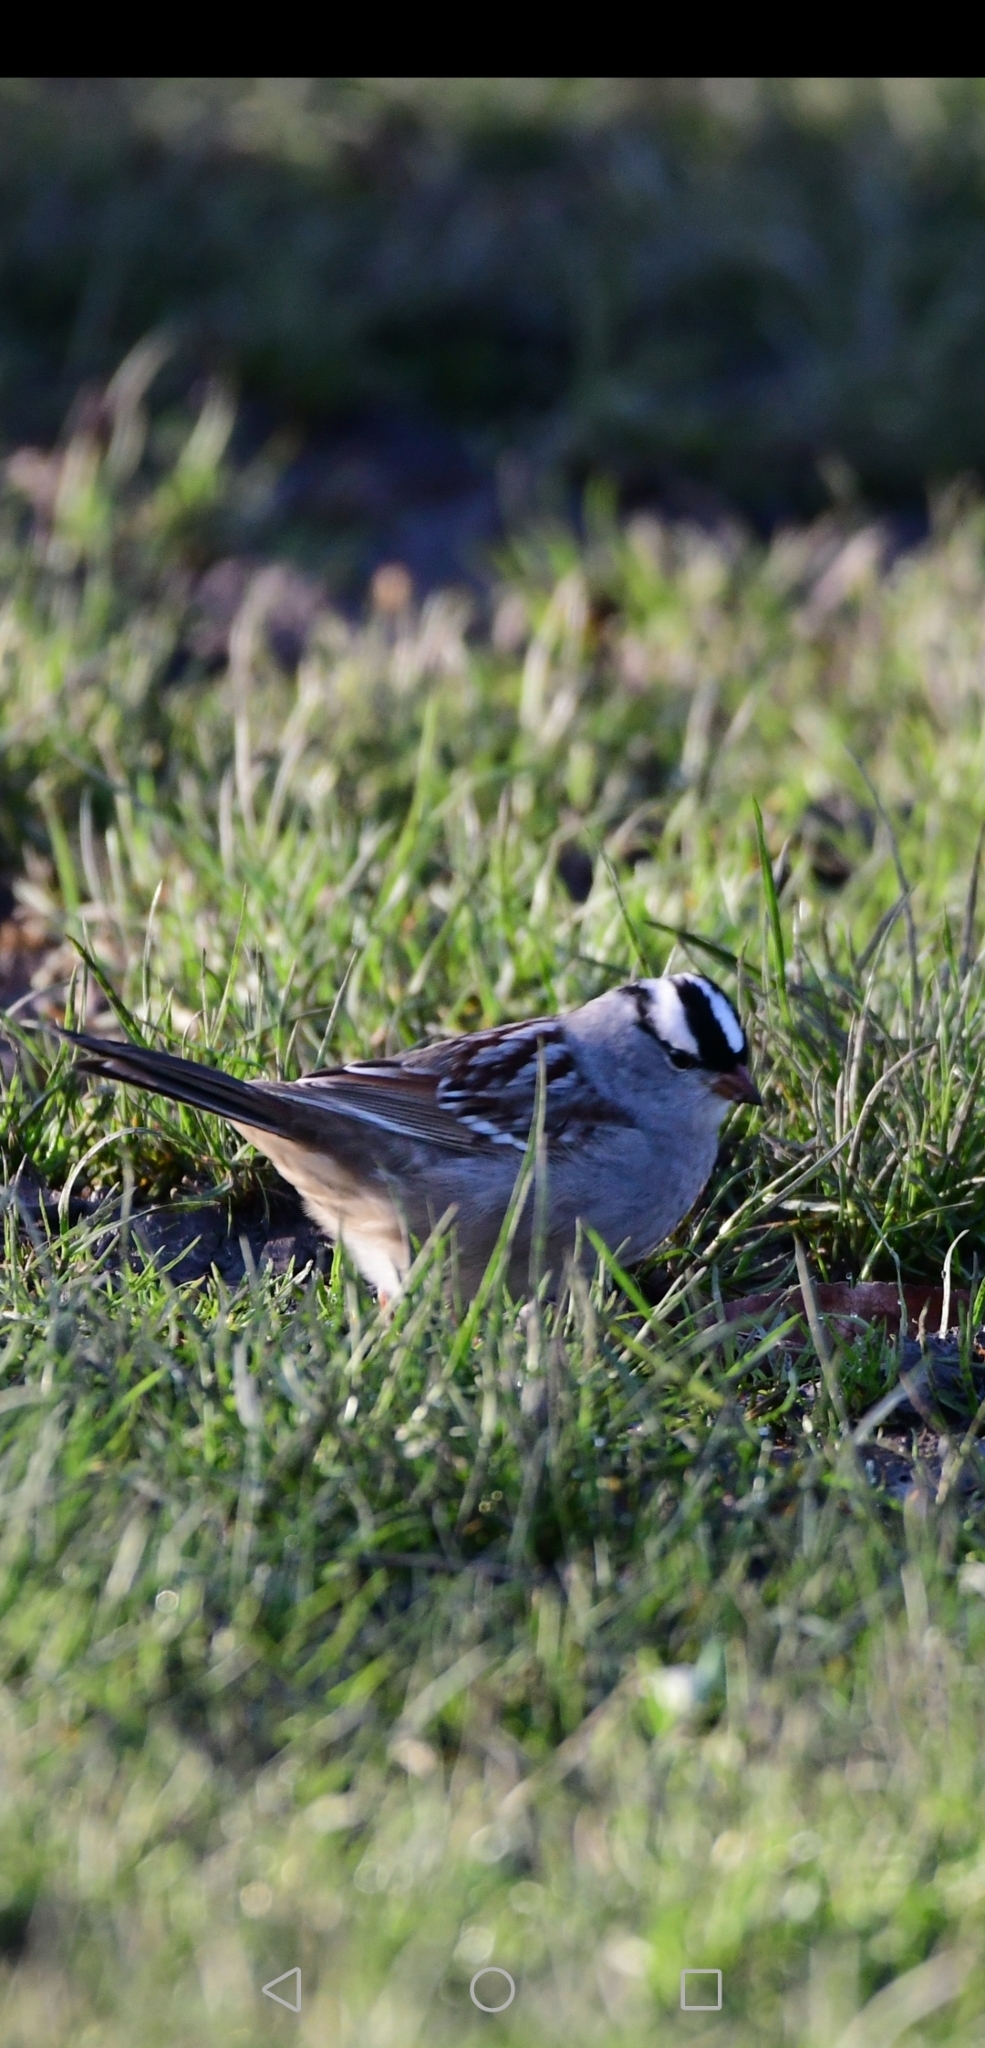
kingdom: Animalia
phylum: Chordata
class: Aves
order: Passeriformes
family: Passerellidae
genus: Zonotrichia
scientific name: Zonotrichia leucophrys
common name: White-crowned sparrow
